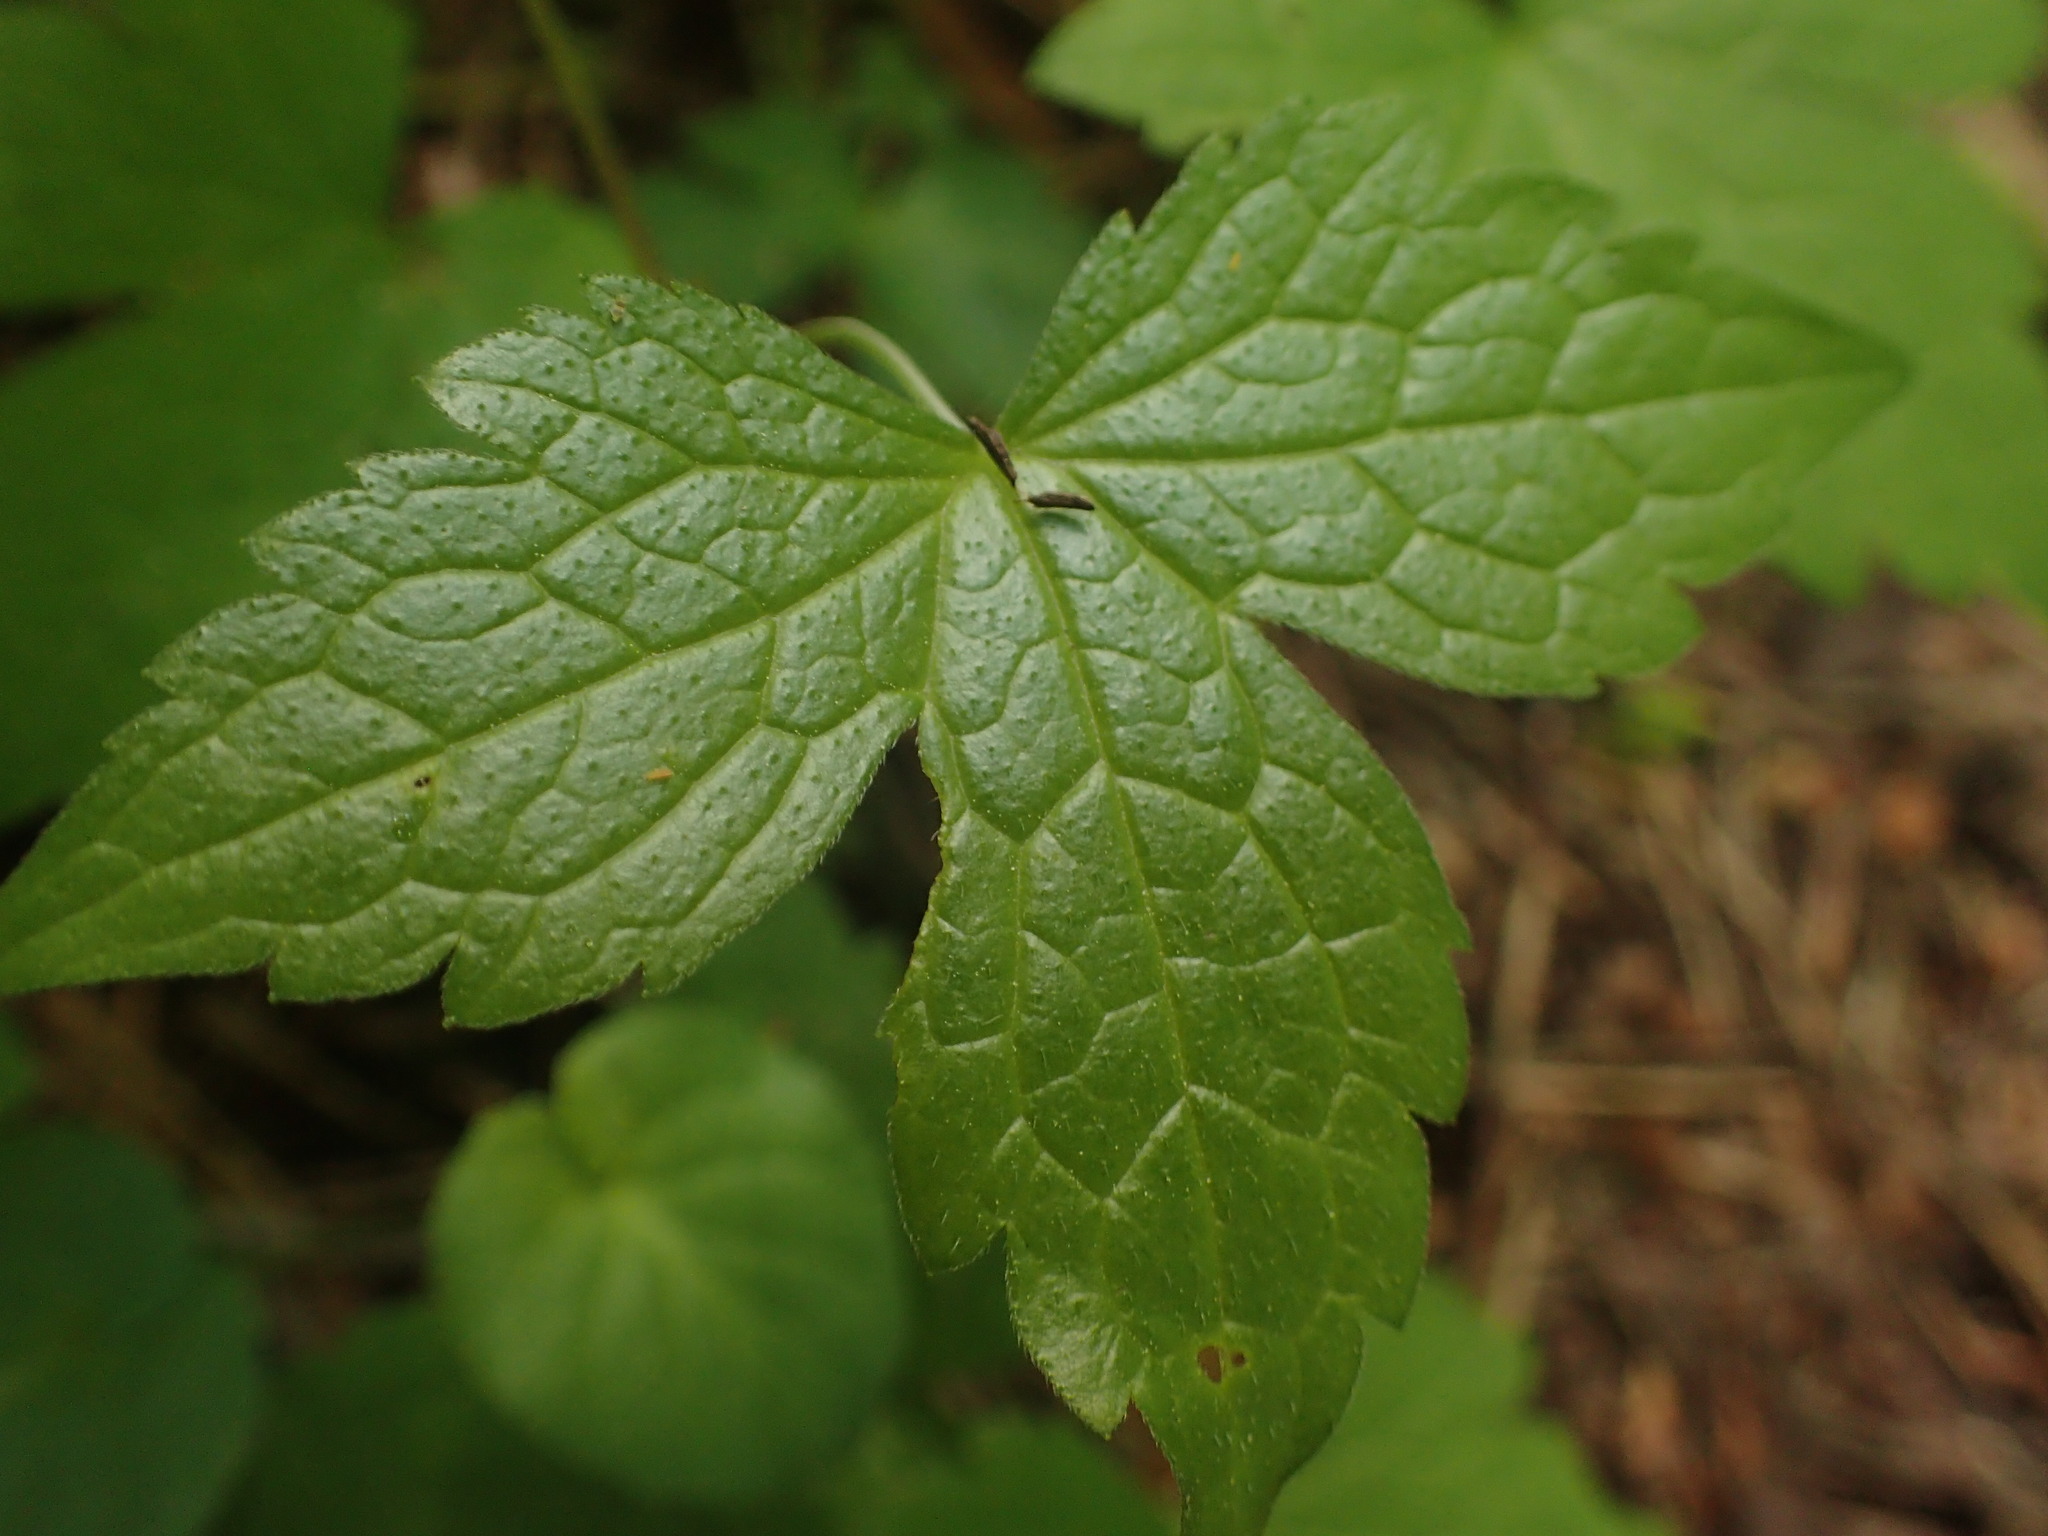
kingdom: Plantae
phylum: Tracheophyta
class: Magnoliopsida
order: Apiales
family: Apiaceae
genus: Sanicula
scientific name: Sanicula europaea
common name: Sanicle
